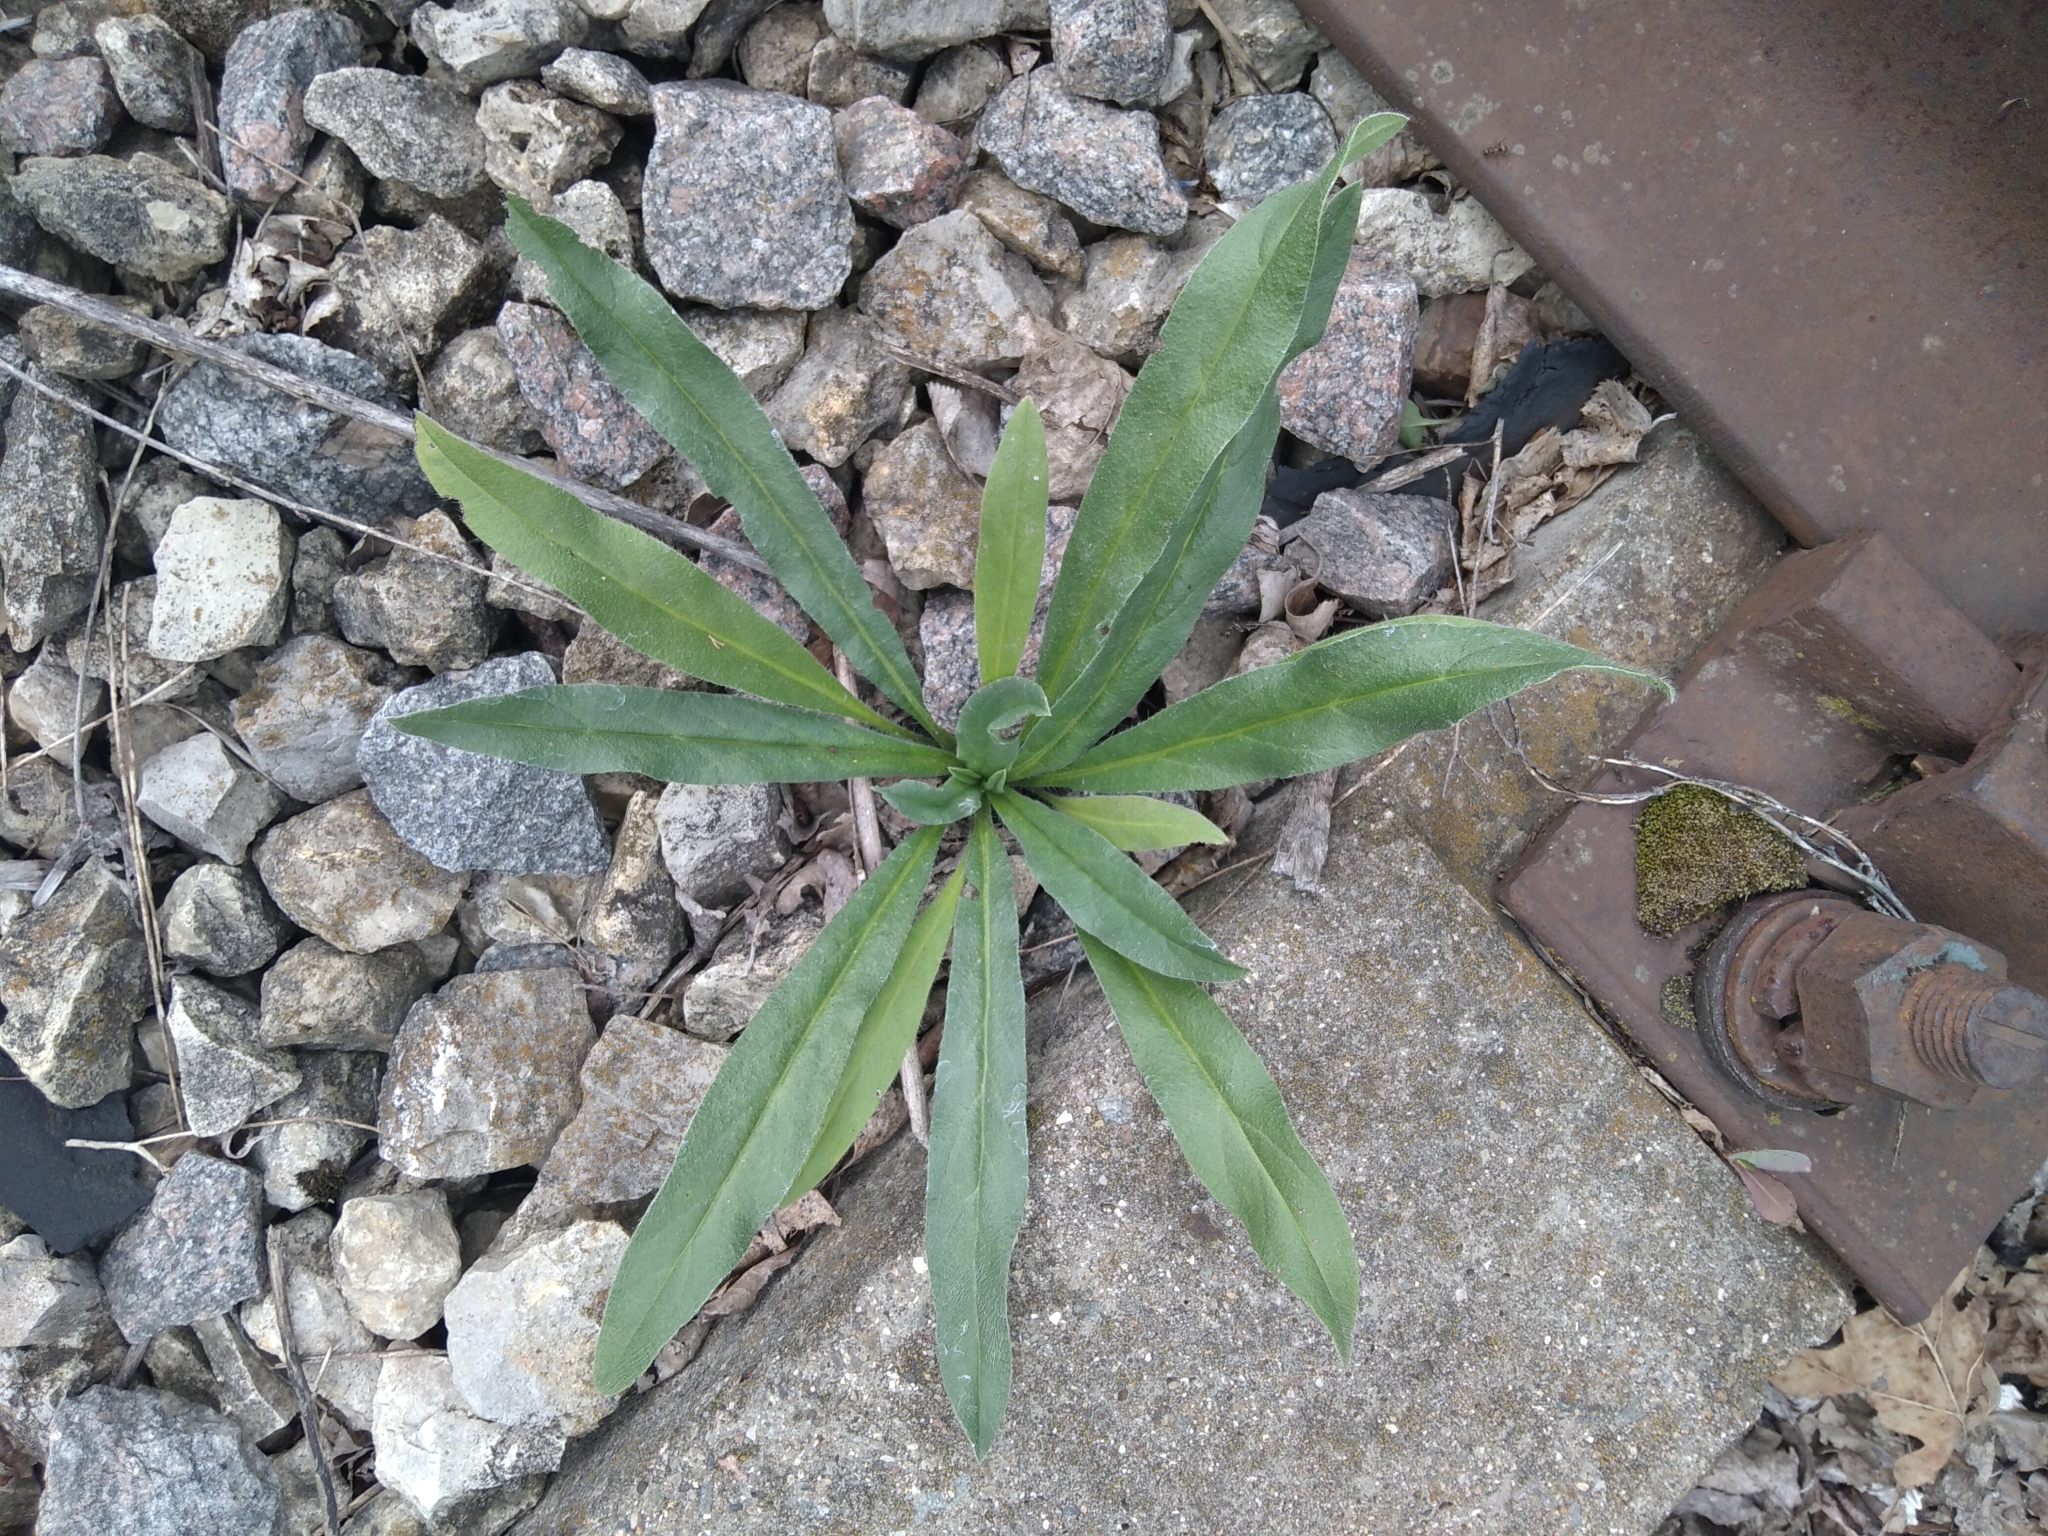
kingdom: Plantae
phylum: Tracheophyta
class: Magnoliopsida
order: Boraginales
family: Boraginaceae
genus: Echium
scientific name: Echium vulgare
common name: Common viper's bugloss
